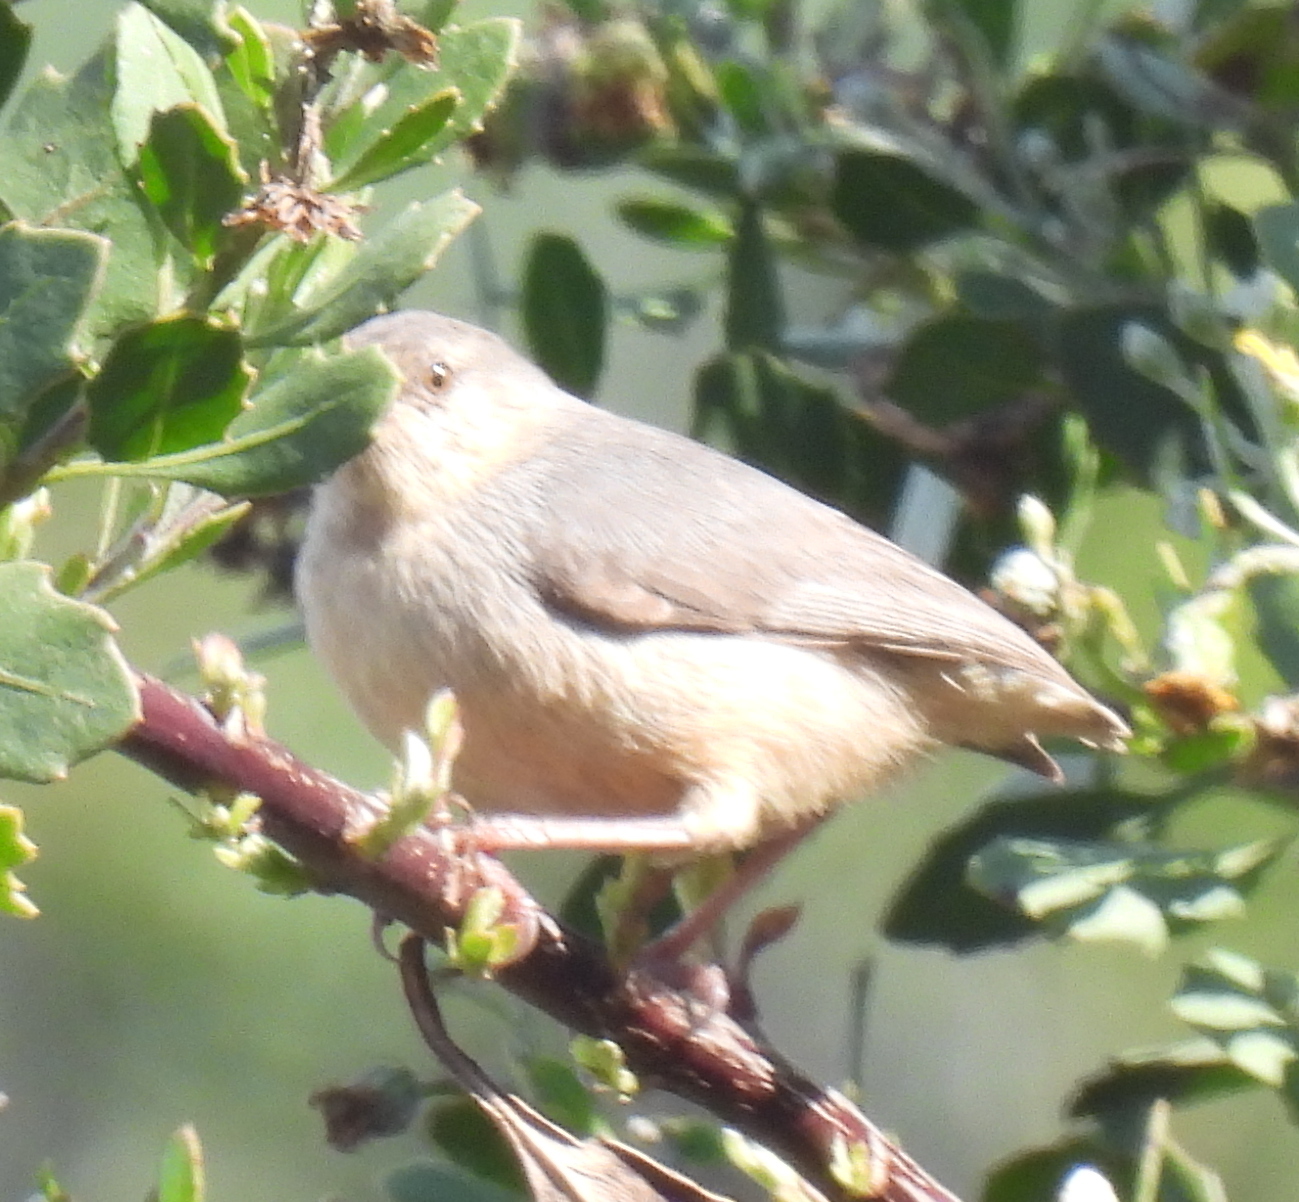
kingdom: Animalia
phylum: Chordata
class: Aves
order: Passeriformes
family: Macrosphenidae
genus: Sylvietta
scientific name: Sylvietta rufescens
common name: Long-billed crombec
